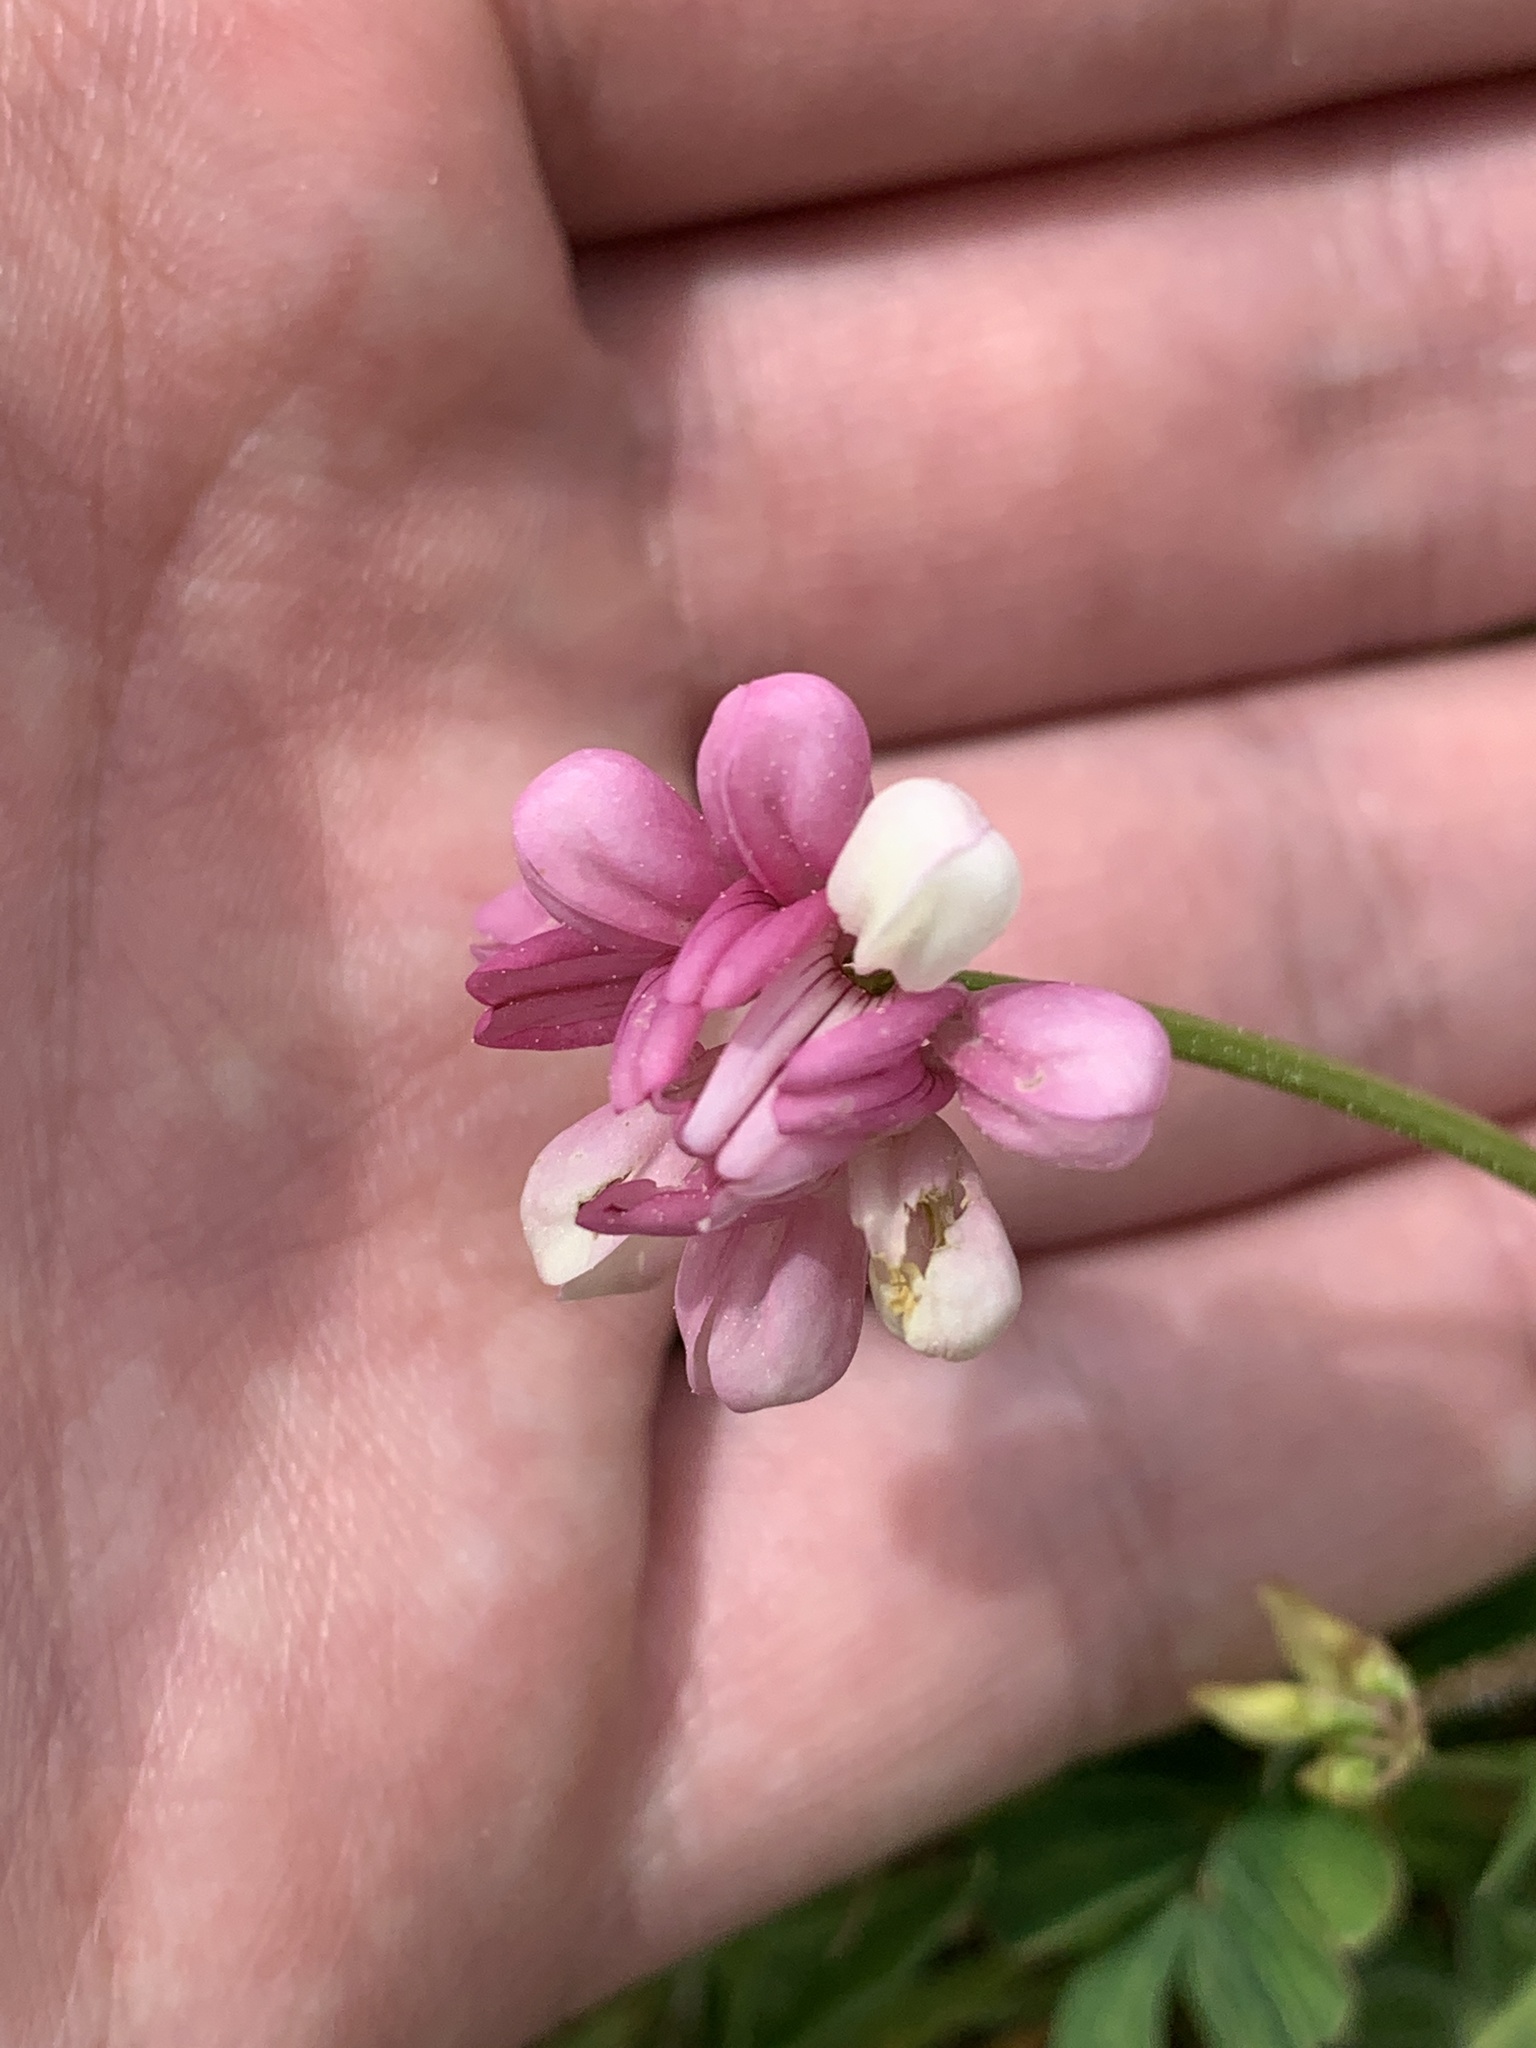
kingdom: Plantae
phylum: Tracheophyta
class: Magnoliopsida
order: Fabales
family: Fabaceae
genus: Coronilla
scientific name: Coronilla varia
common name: Crownvetch
